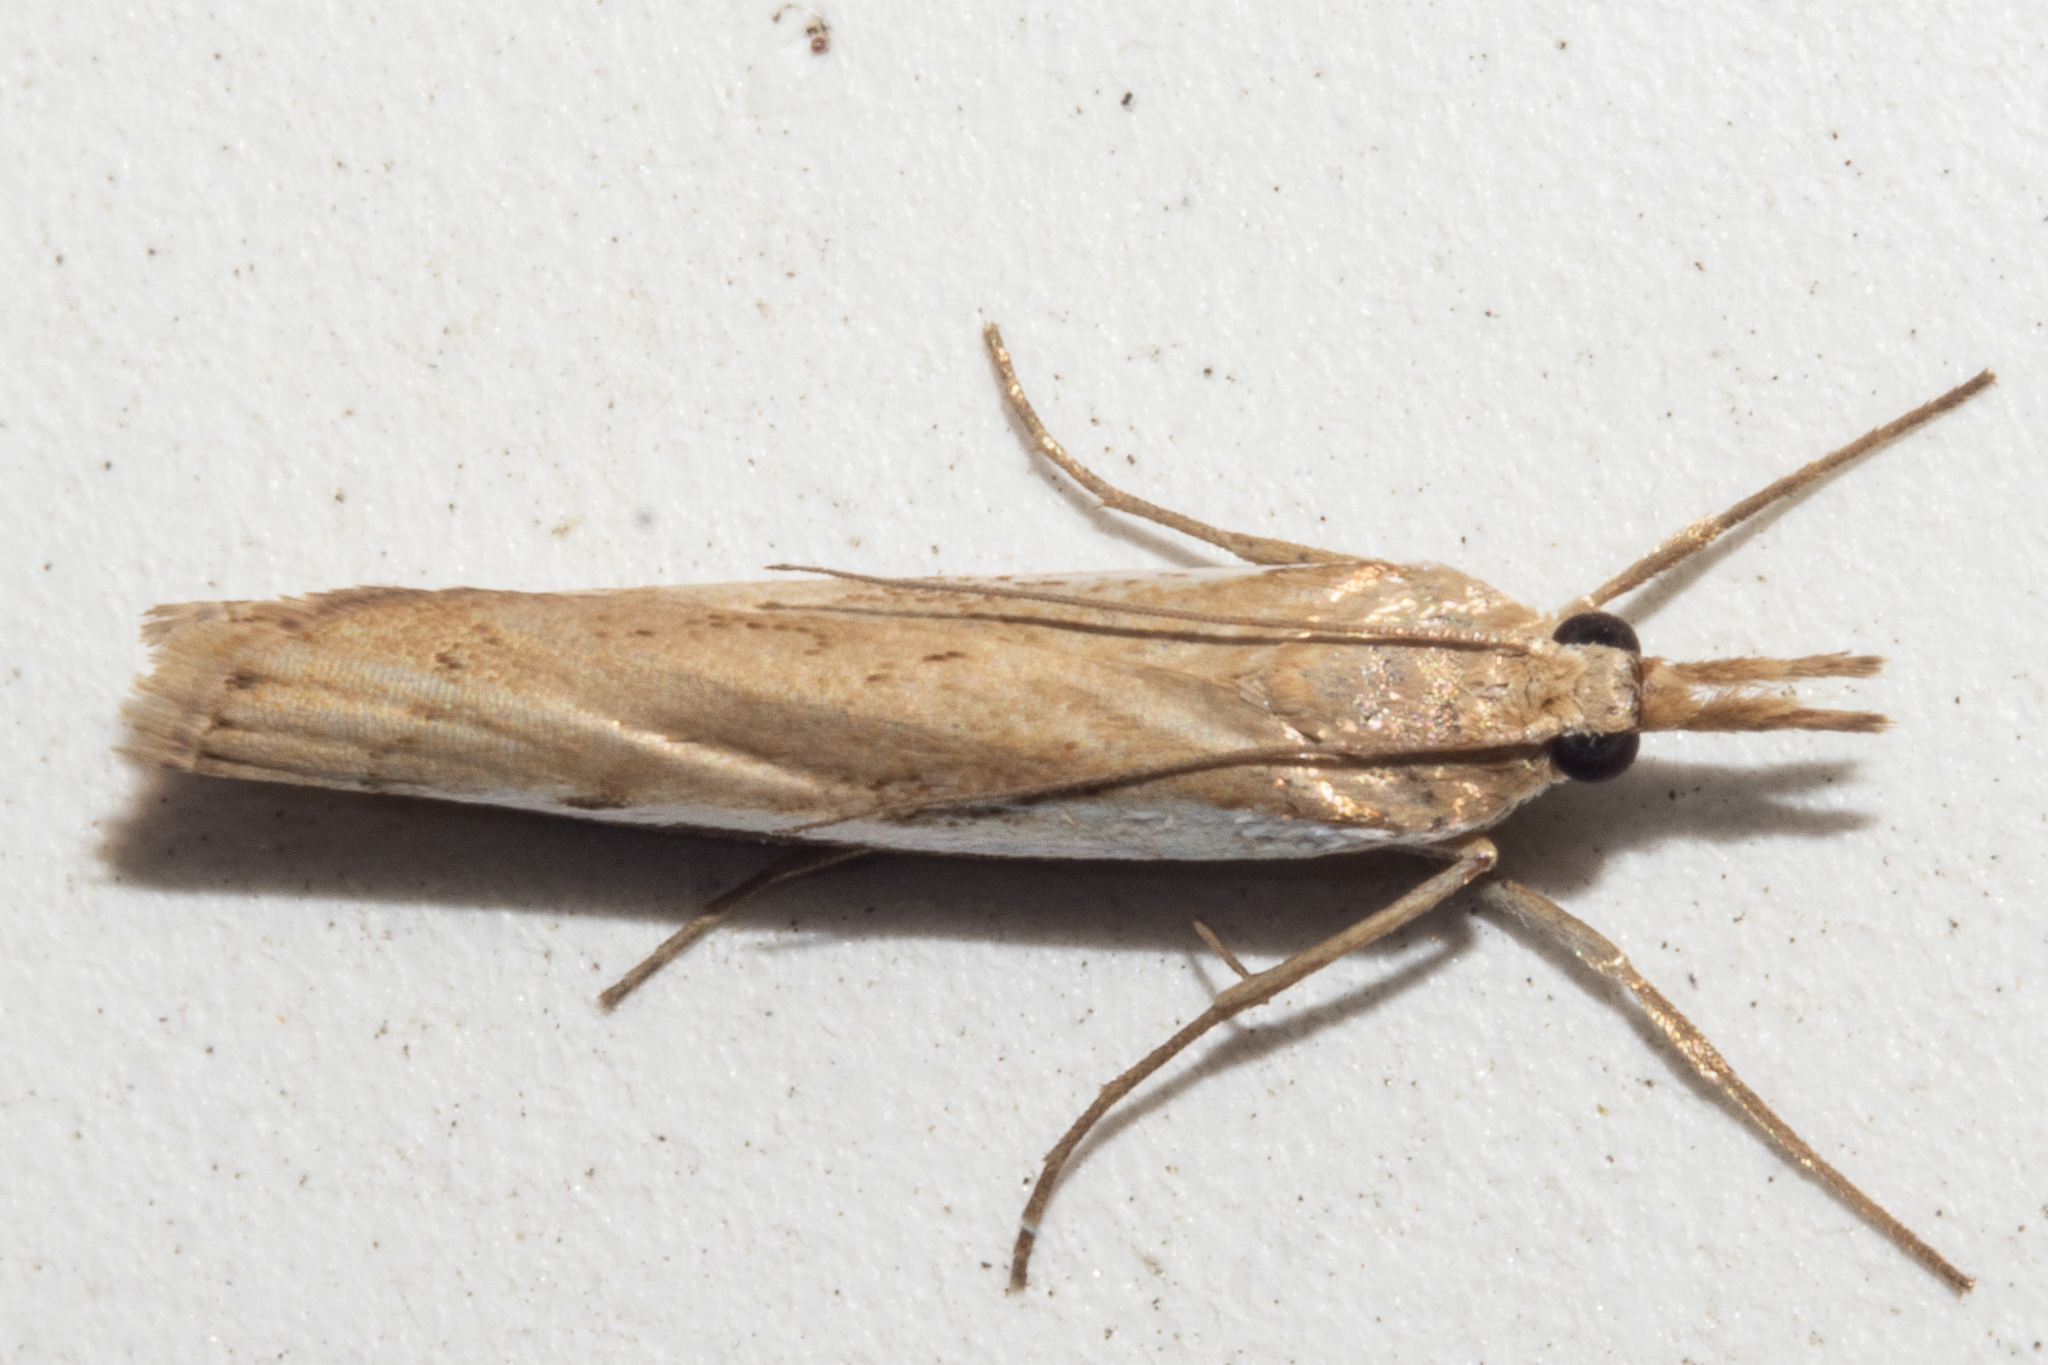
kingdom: Animalia
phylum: Arthropoda
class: Insecta
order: Lepidoptera
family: Crambidae
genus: Orocrambus
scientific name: Orocrambus flexuosellus
